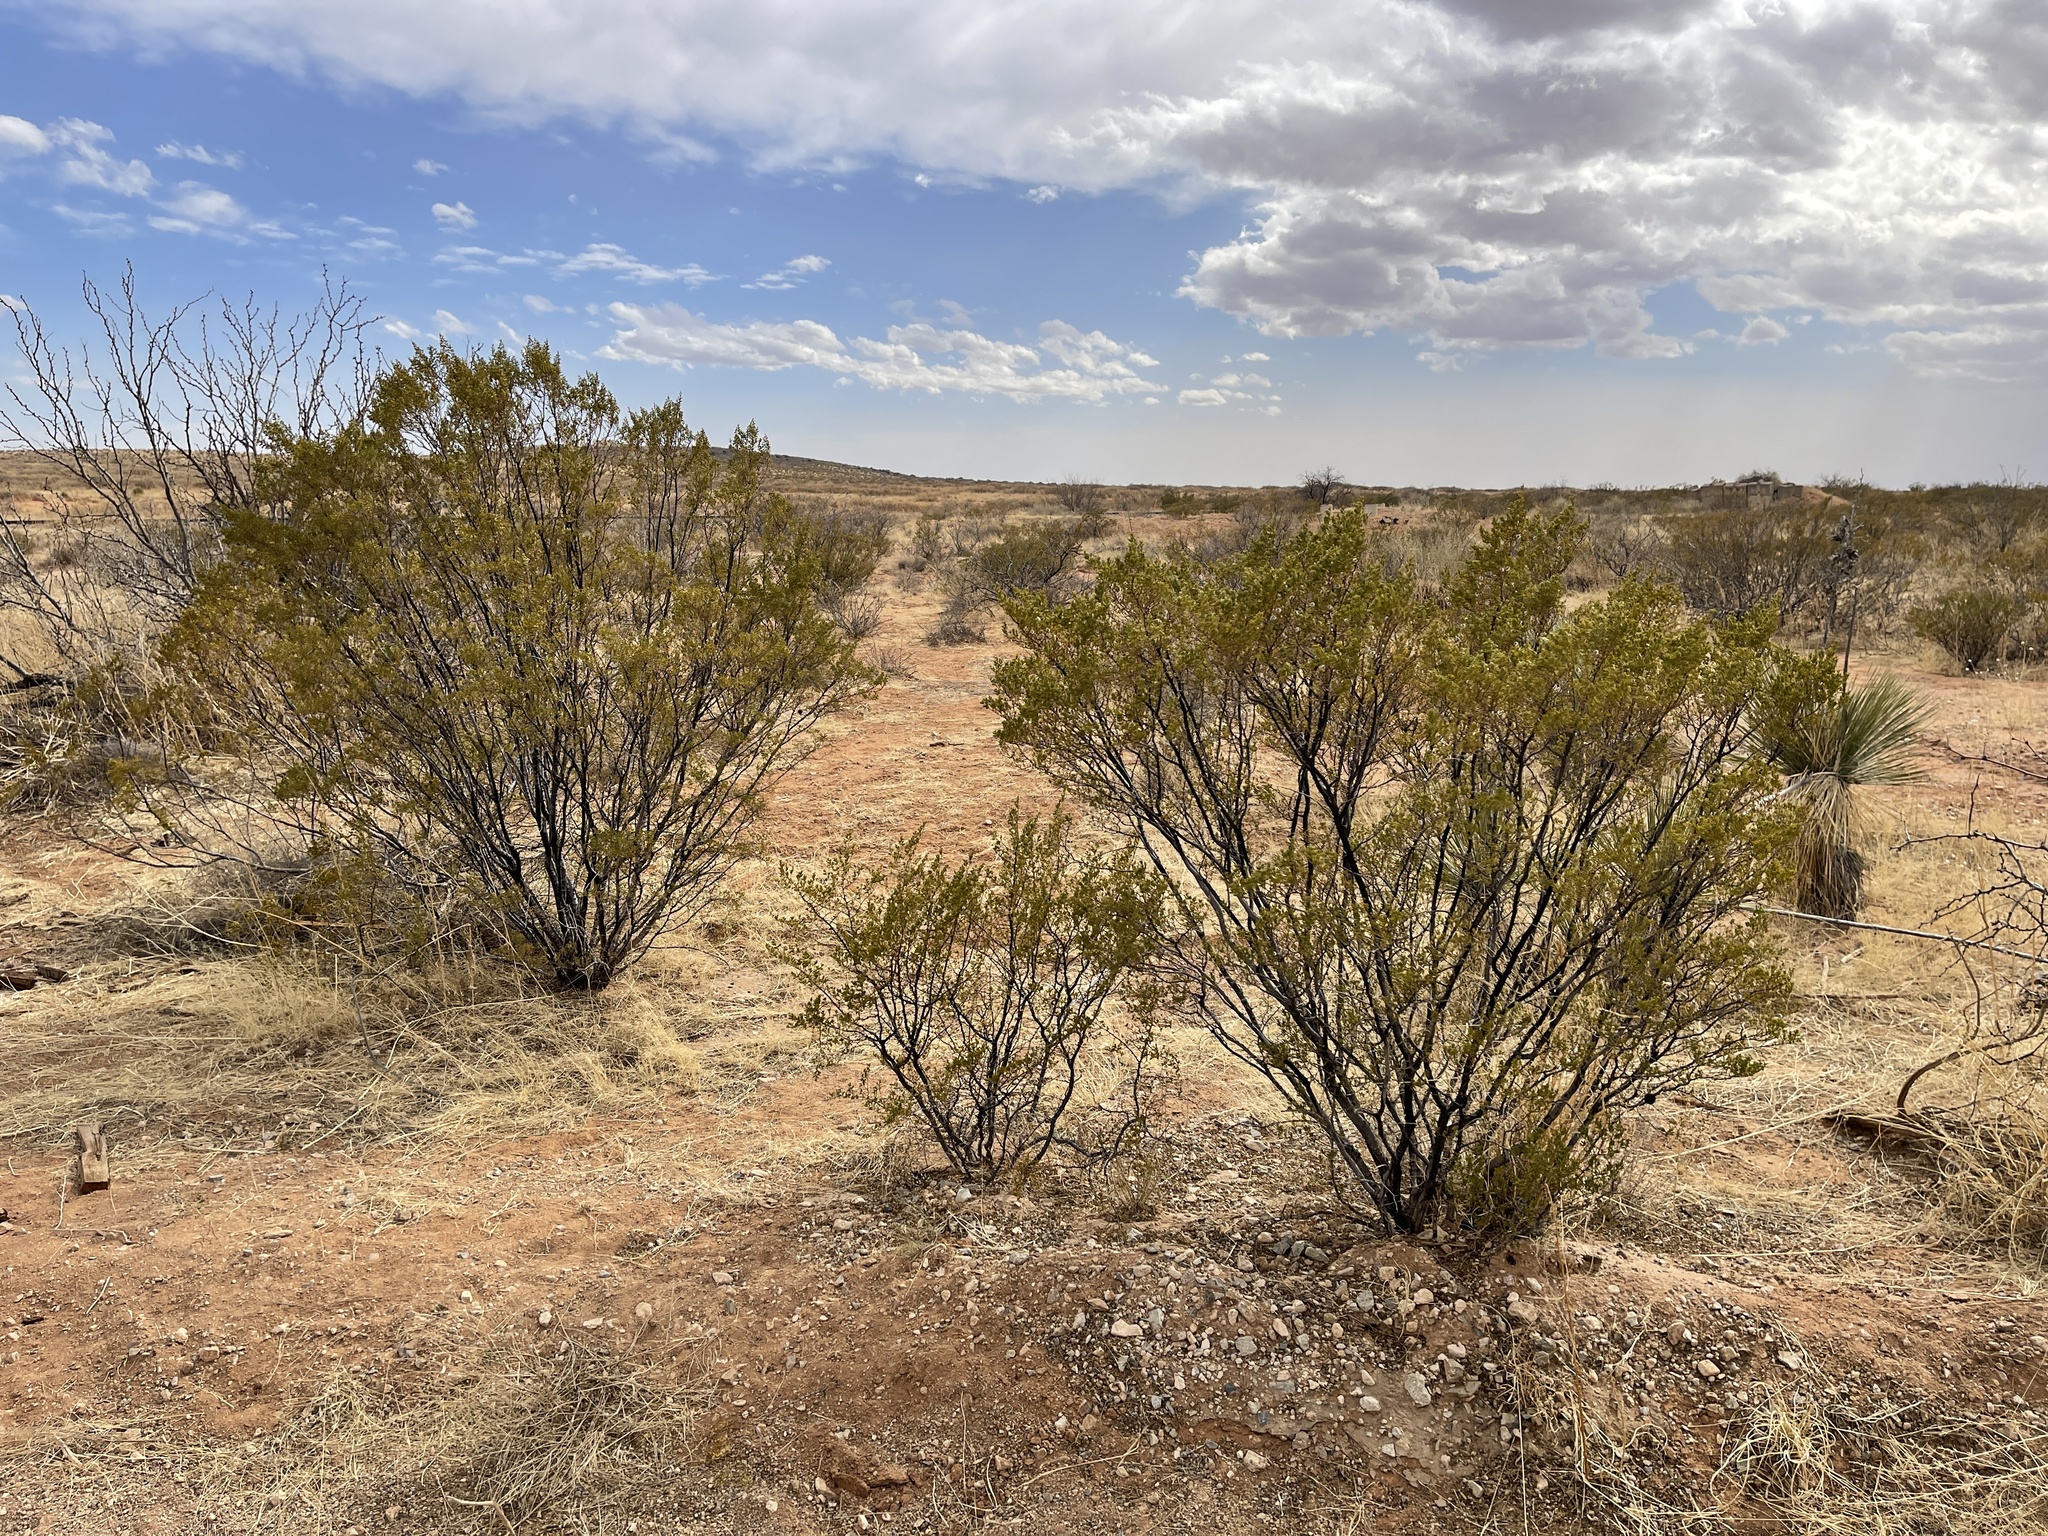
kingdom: Plantae
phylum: Tracheophyta
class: Magnoliopsida
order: Zygophyllales
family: Zygophyllaceae
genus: Larrea
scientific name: Larrea tridentata
